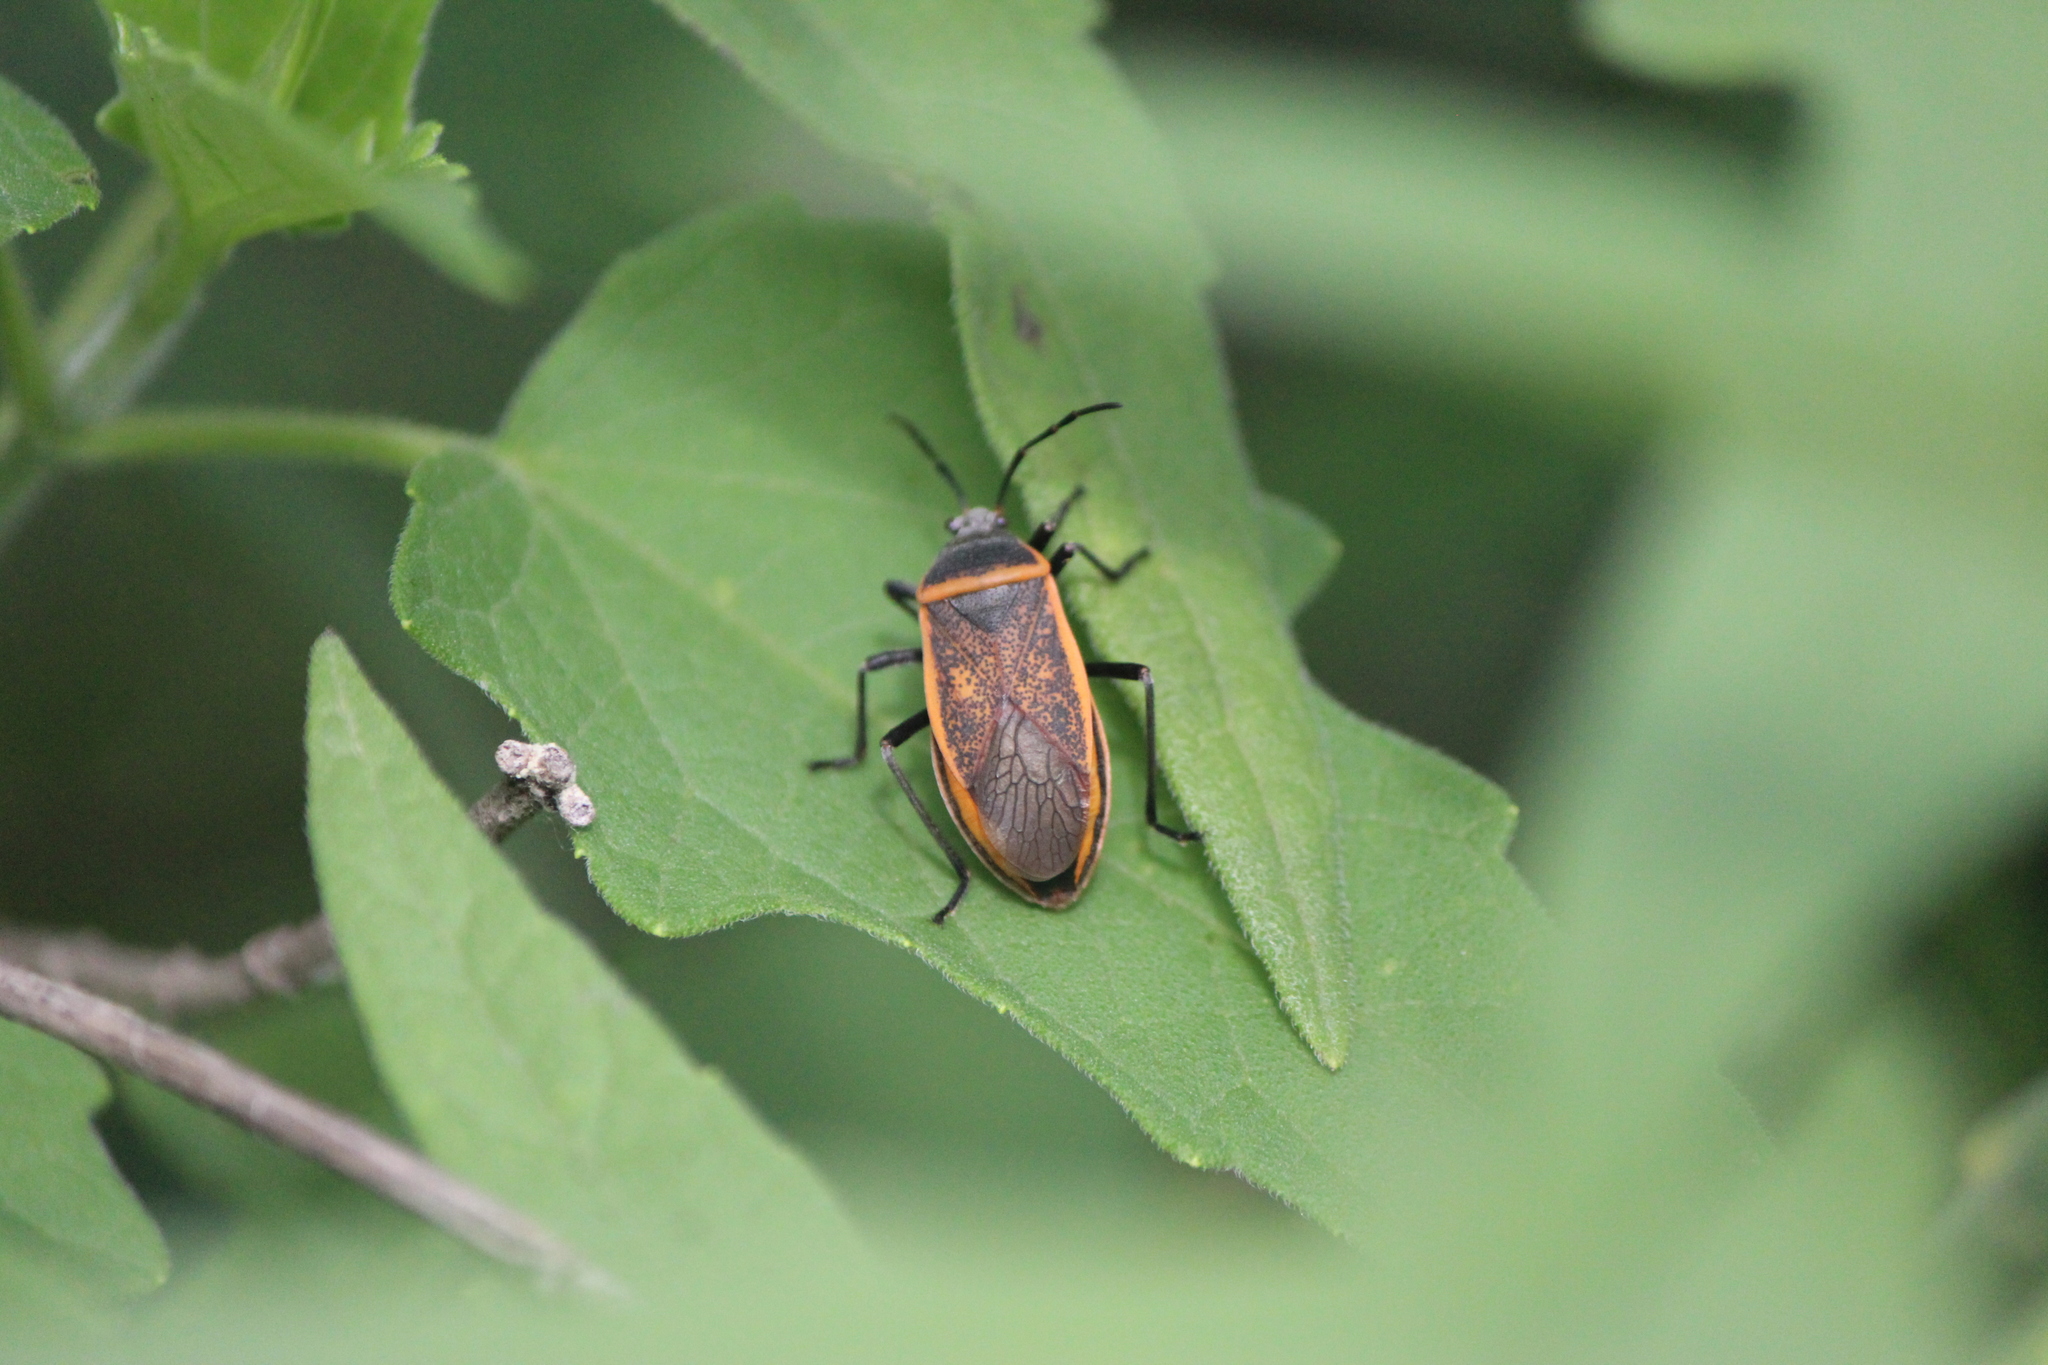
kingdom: Animalia
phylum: Arthropoda
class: Insecta
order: Hemiptera
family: Largidae
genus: Largus
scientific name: Largus convivus
